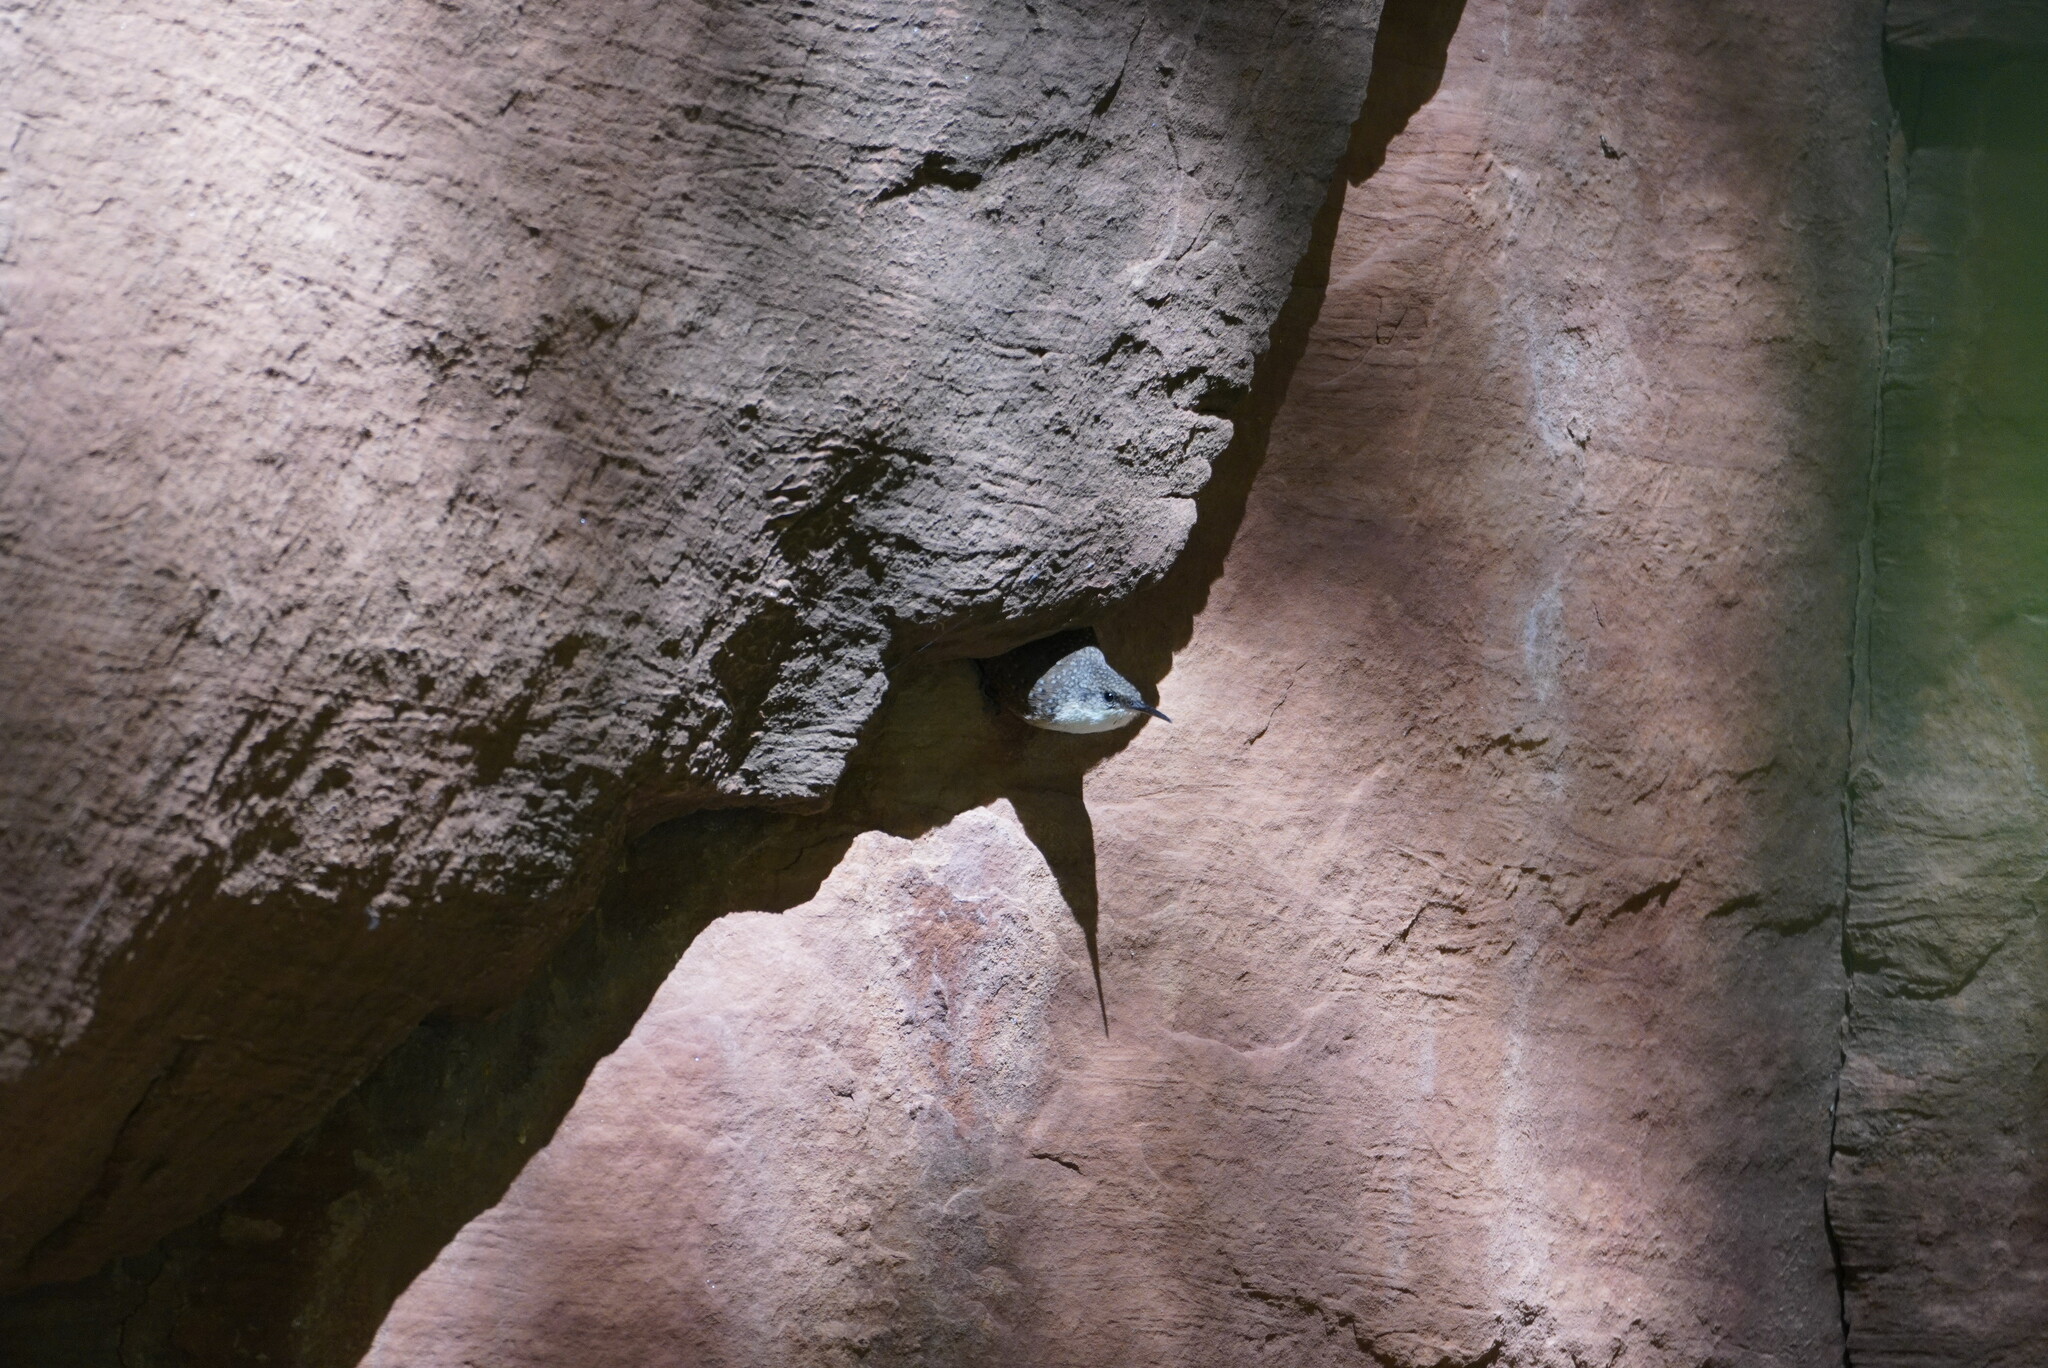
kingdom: Animalia
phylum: Chordata
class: Aves
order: Passeriformes
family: Troglodytidae
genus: Catherpes
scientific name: Catherpes mexicanus
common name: Canyon wren
